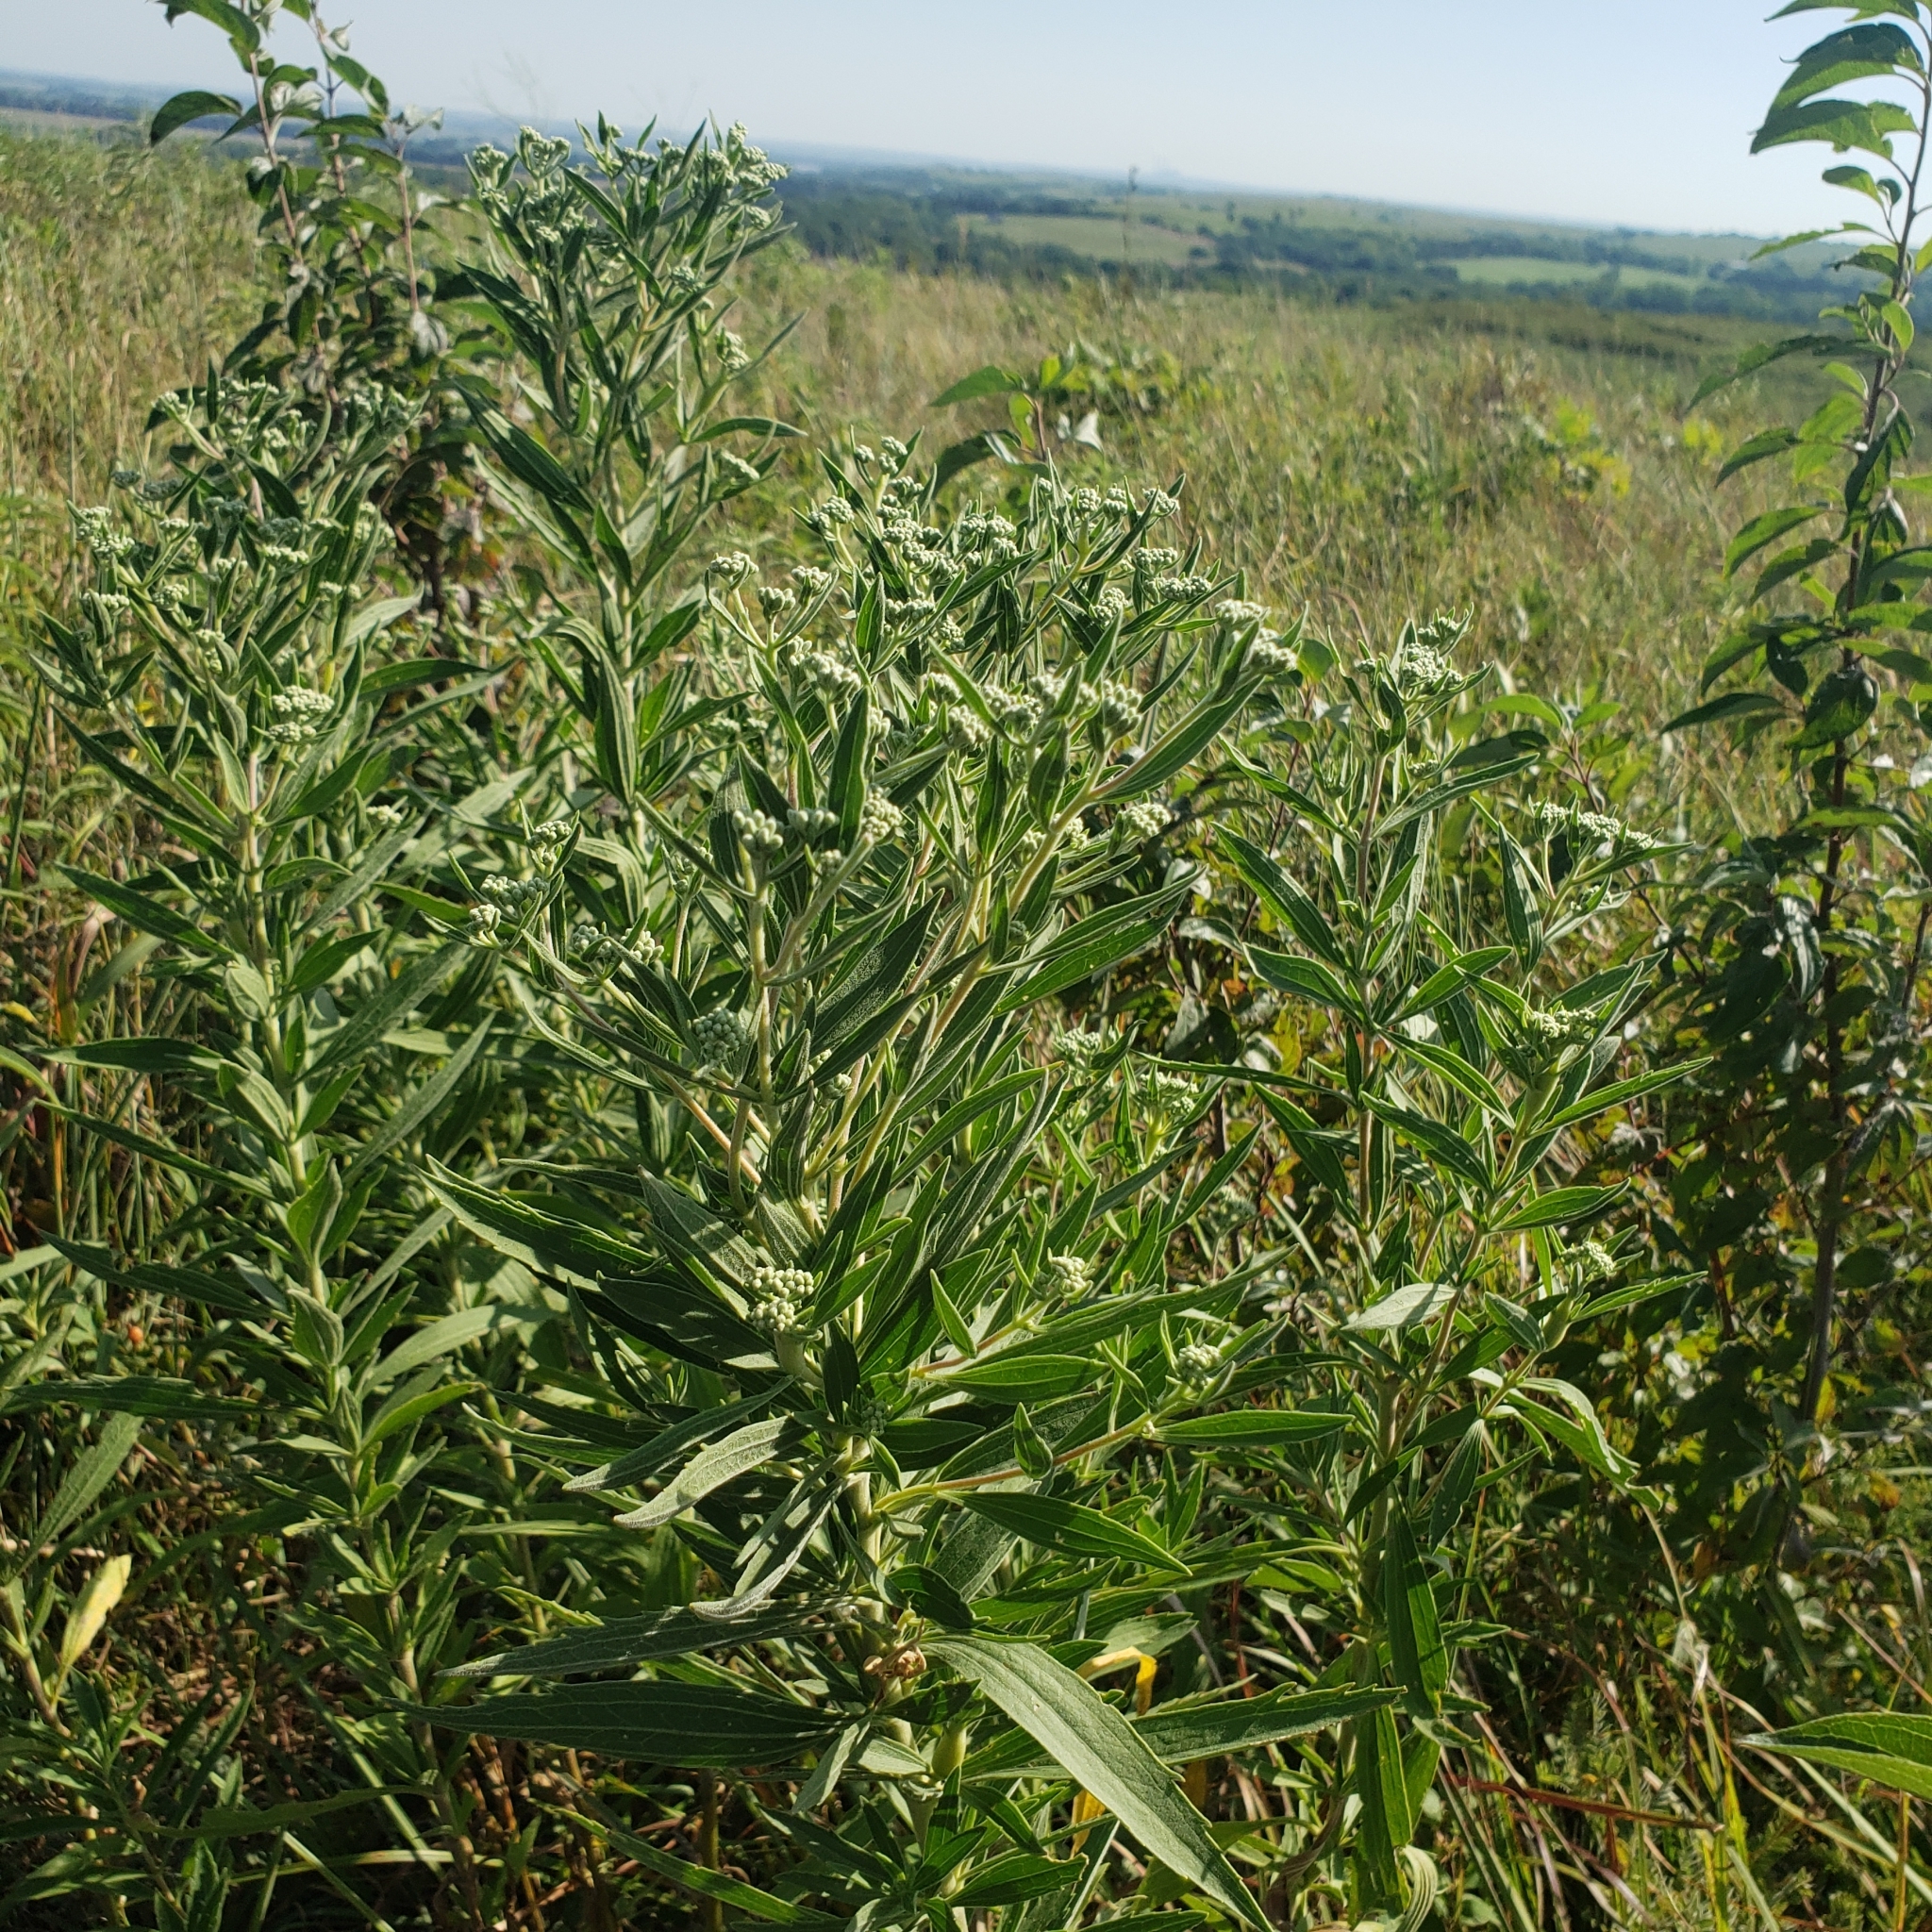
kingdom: Plantae
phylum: Tracheophyta
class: Magnoliopsida
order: Asterales
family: Asteraceae
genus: Eupatorium
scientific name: Eupatorium altissimum
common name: Tall thoroughwort
